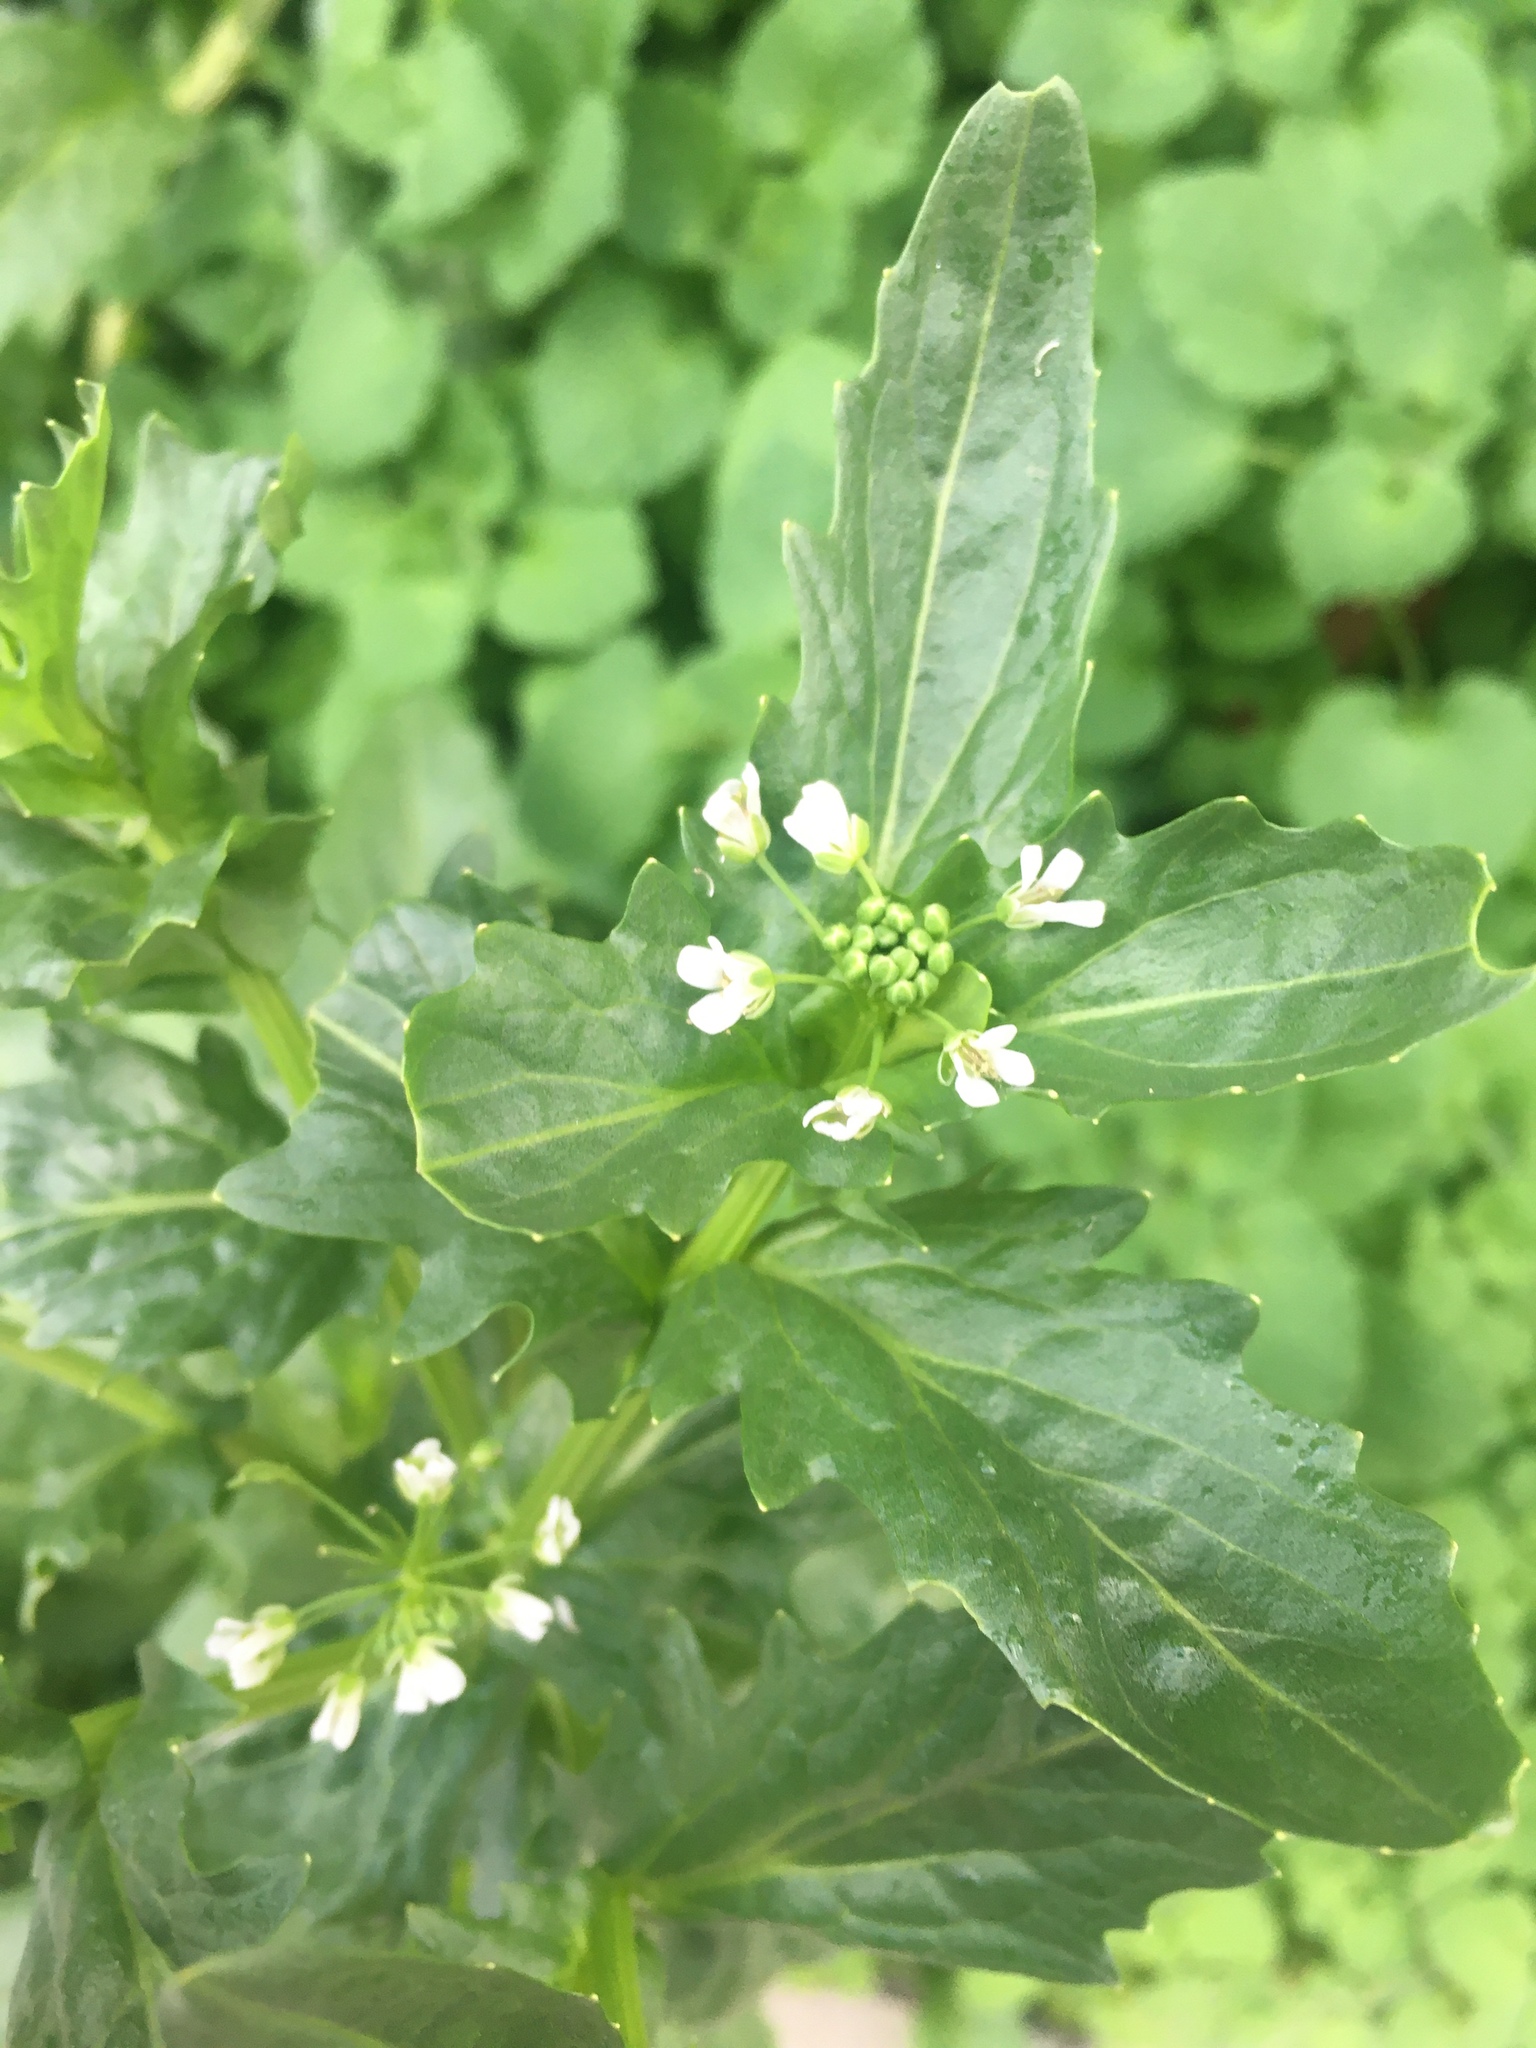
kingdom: Plantae
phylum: Tracheophyta
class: Magnoliopsida
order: Brassicales
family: Brassicaceae
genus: Thlaspi
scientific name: Thlaspi arvense
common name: Field pennycress
